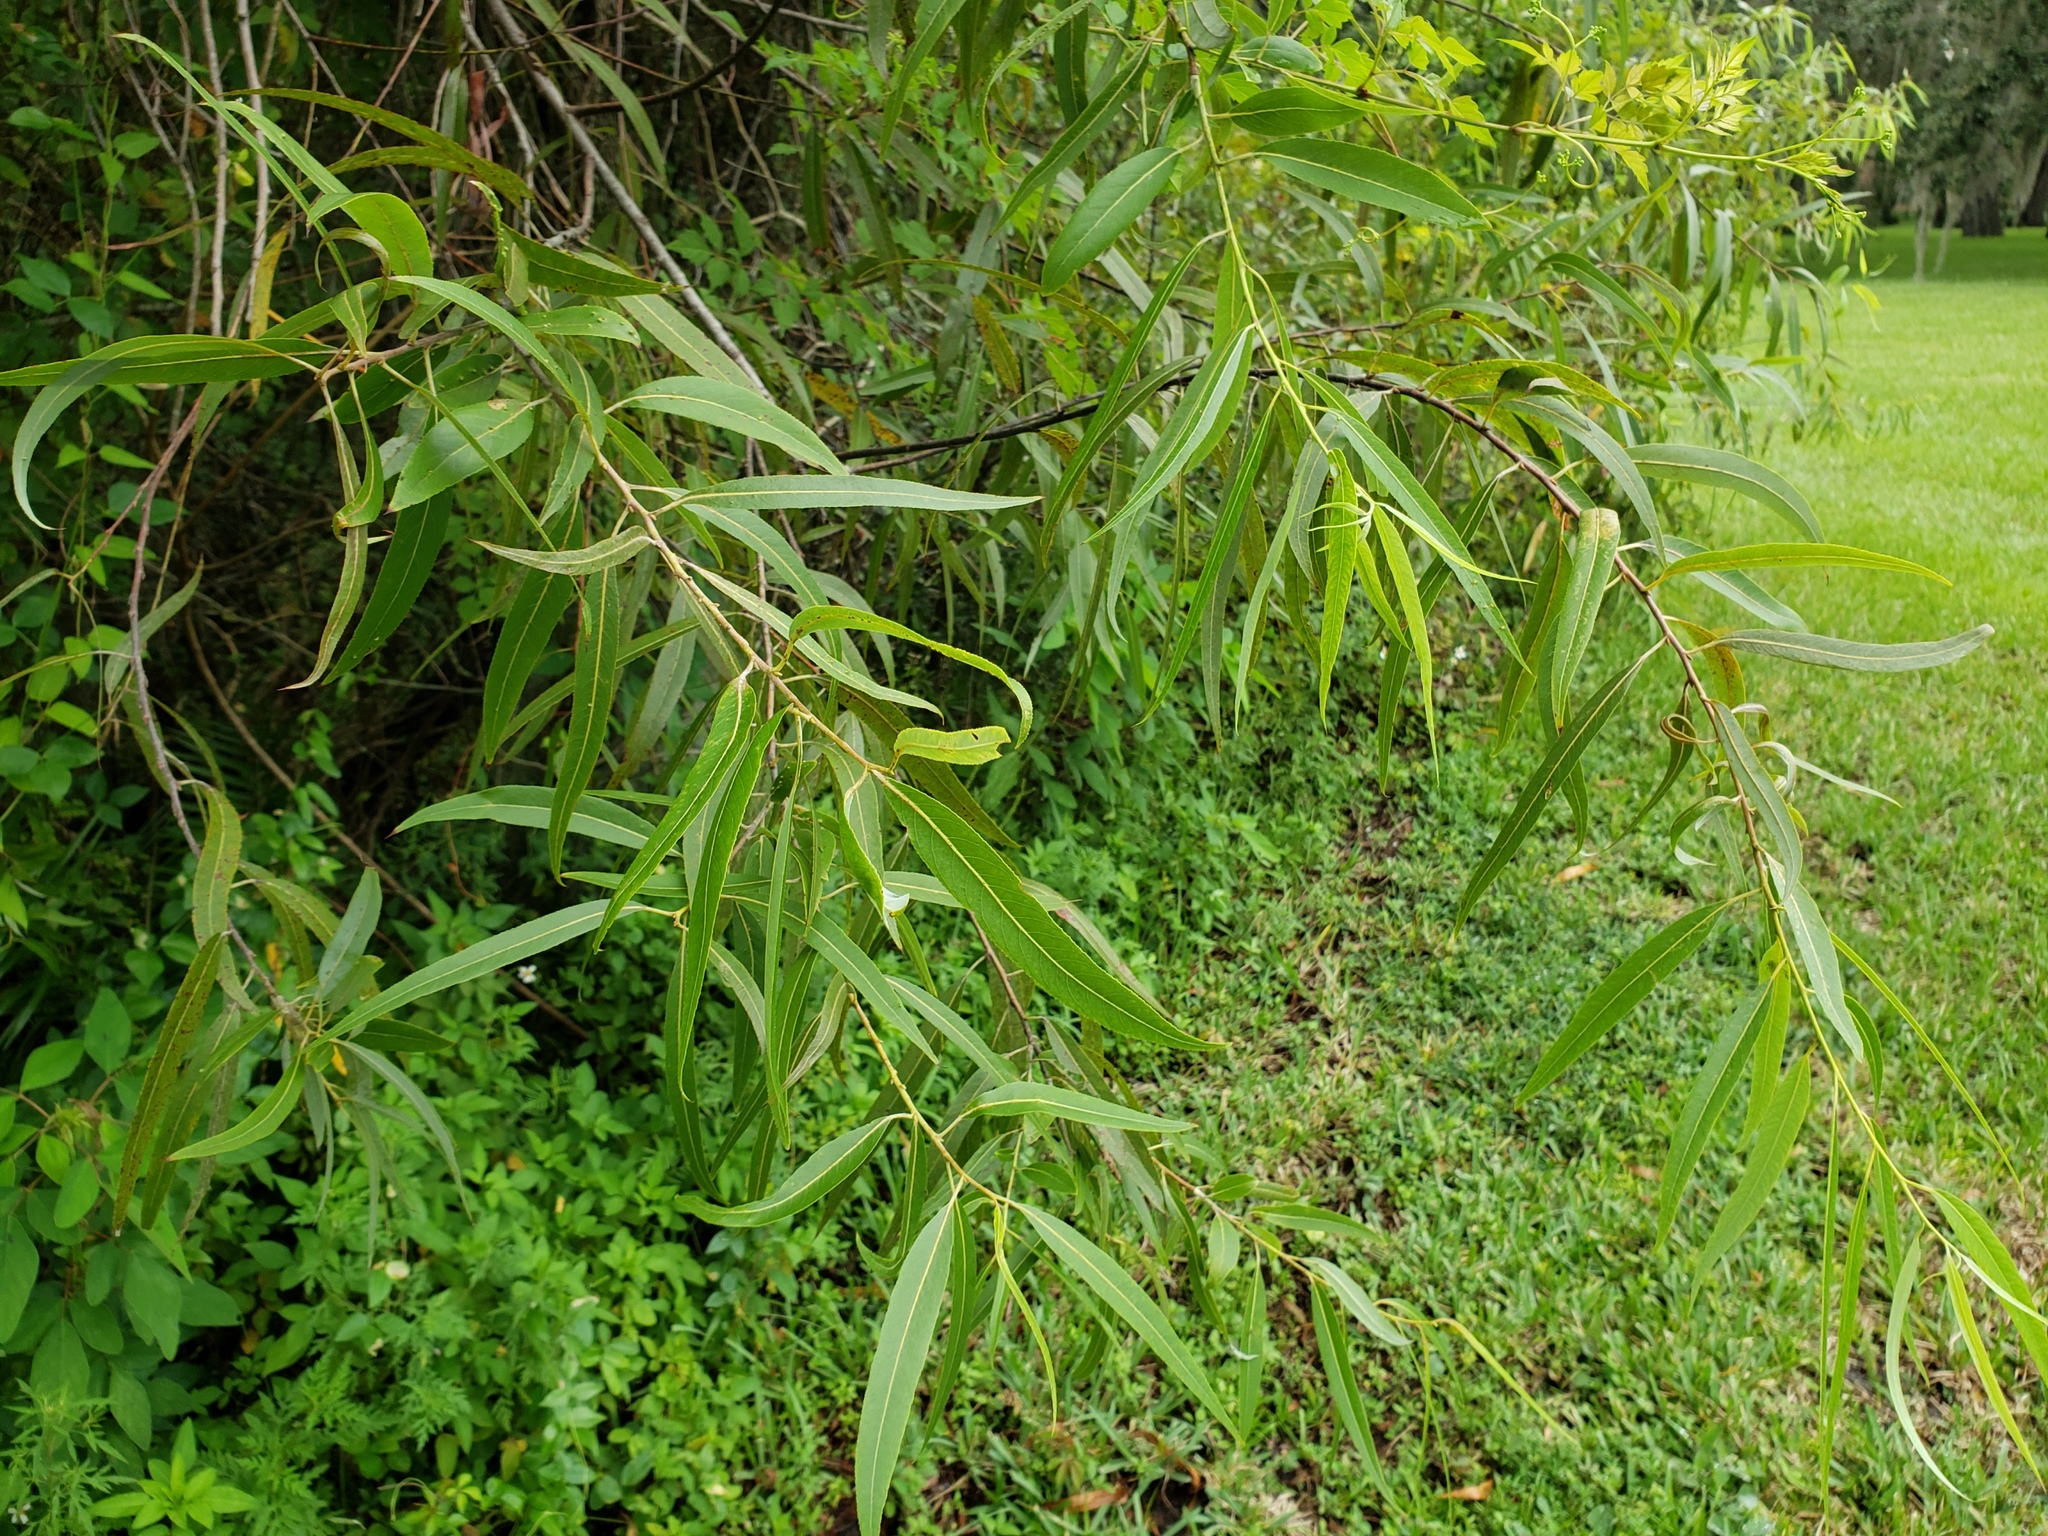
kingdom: Plantae
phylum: Tracheophyta
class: Magnoliopsida
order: Malpighiales
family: Salicaceae
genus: Salix
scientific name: Salix caroliniana
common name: Carolina willow
